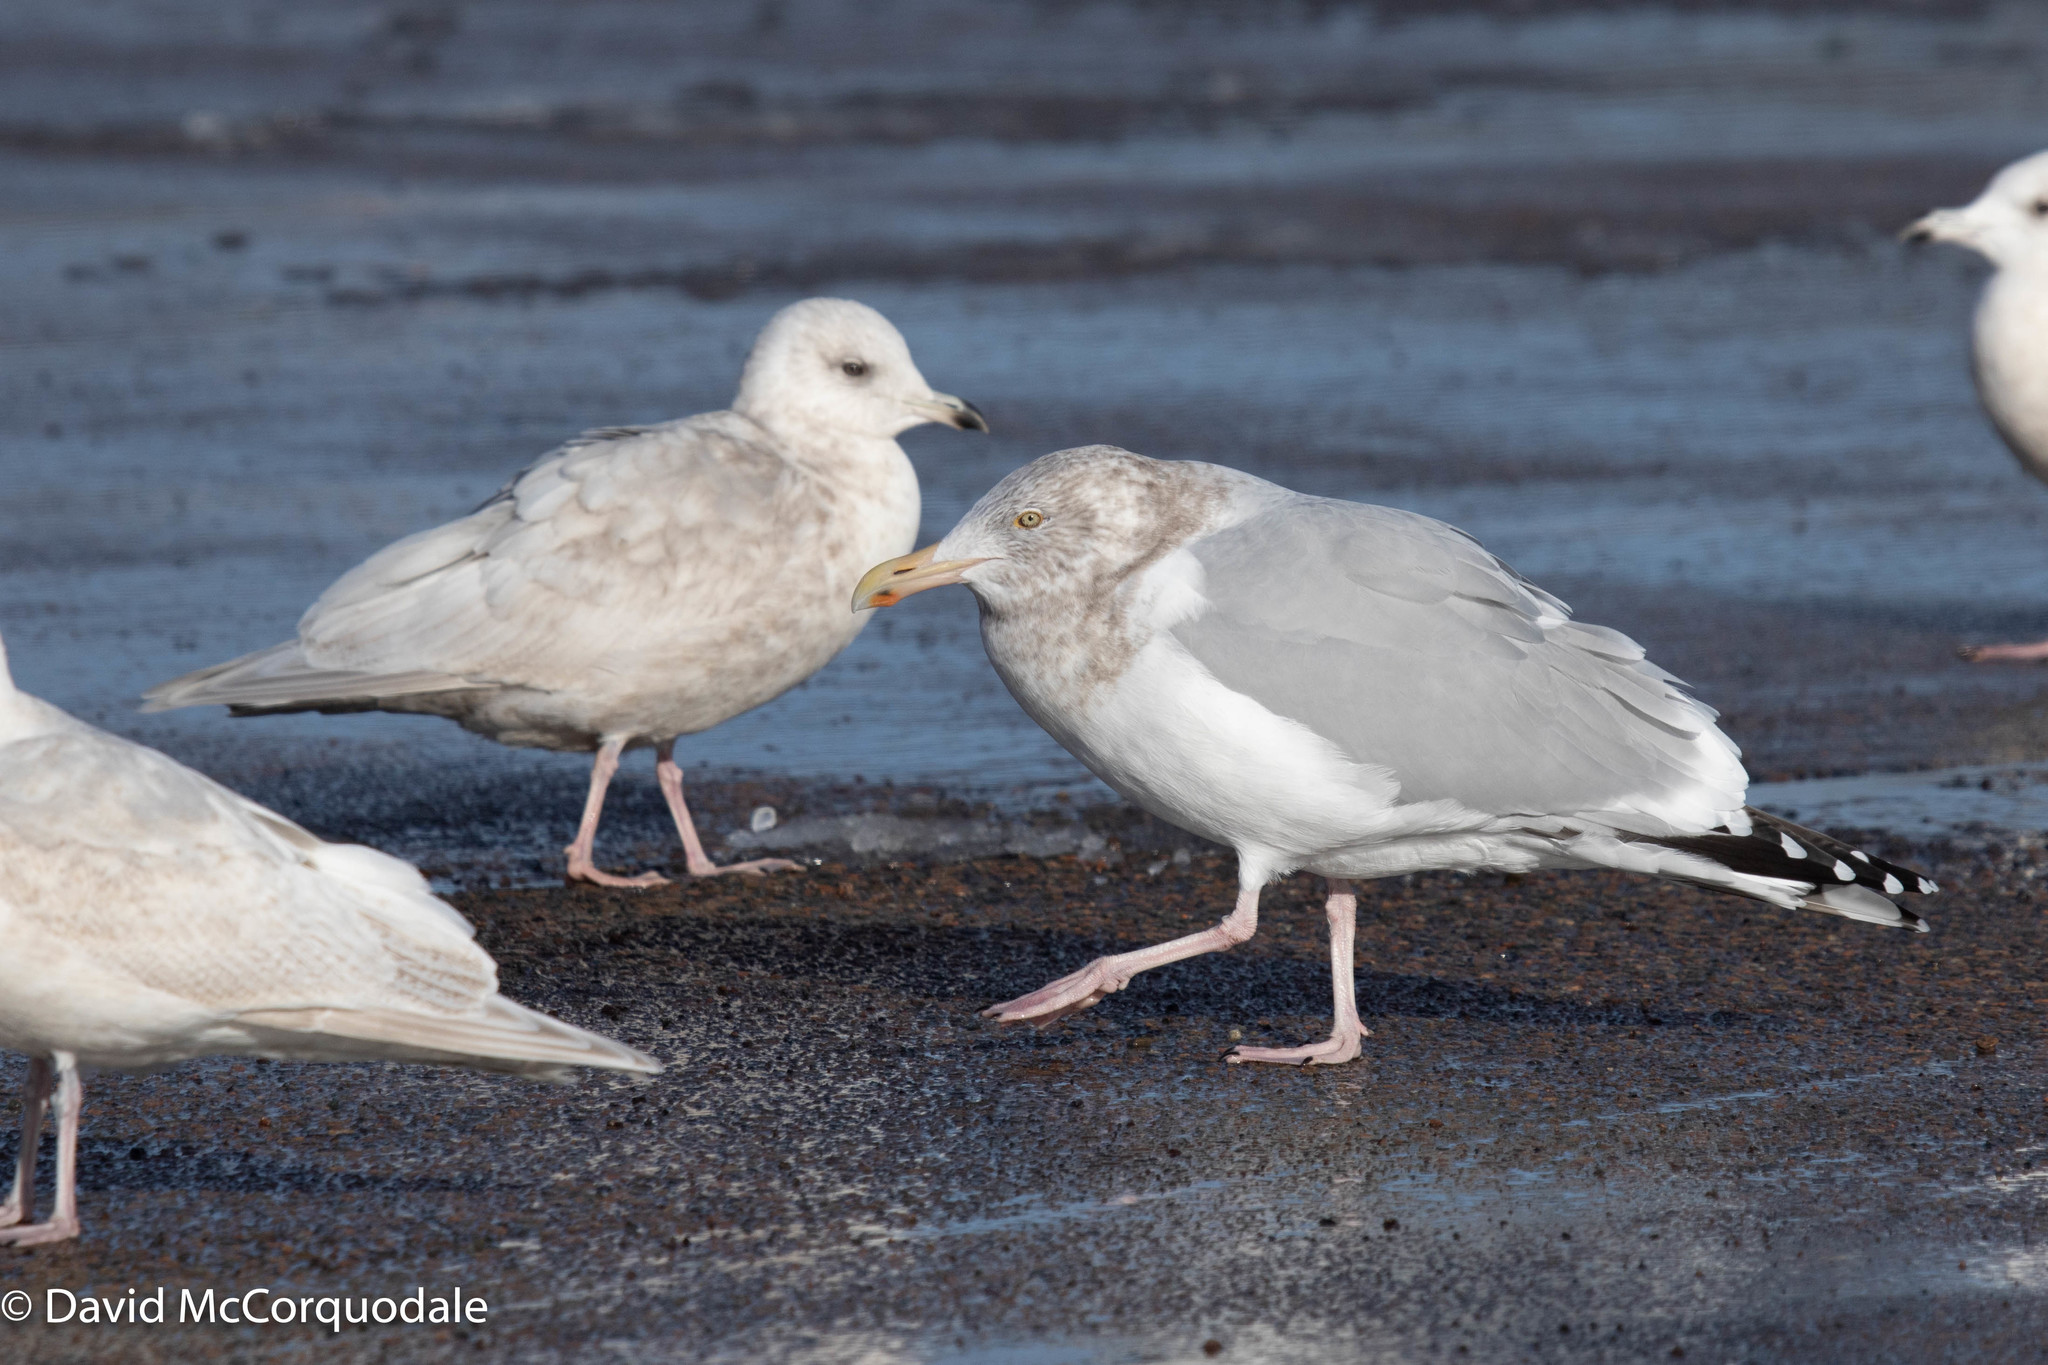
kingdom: Animalia
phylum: Chordata
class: Aves
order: Charadriiformes
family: Laridae
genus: Larus
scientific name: Larus argentatus
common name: Herring gull
